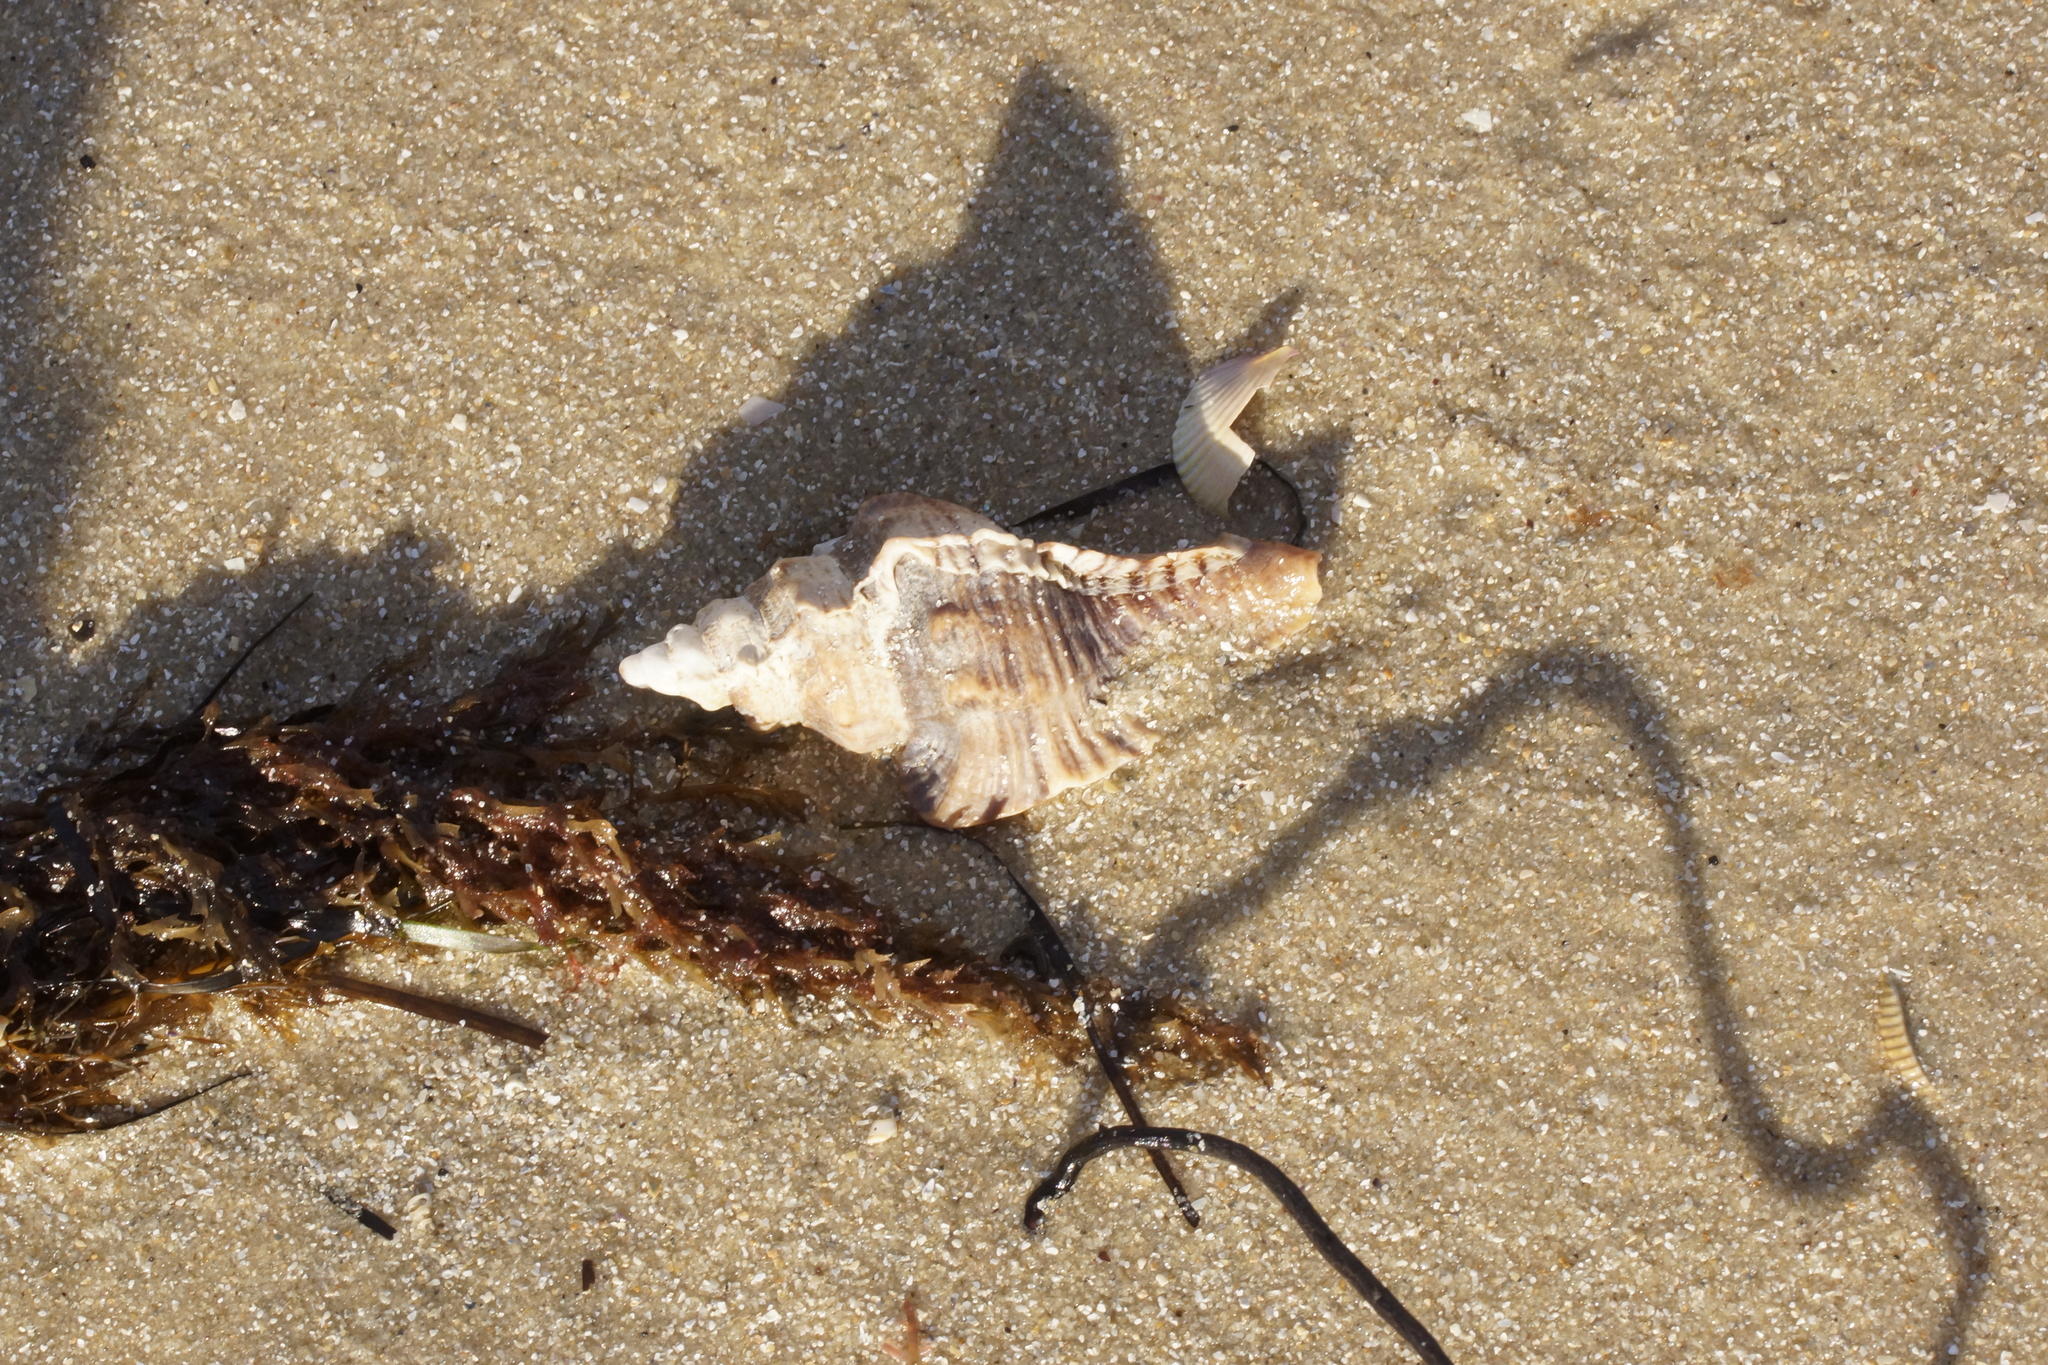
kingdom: Animalia
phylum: Mollusca
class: Gastropoda
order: Neogastropoda
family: Muricidae
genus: Pterochelus
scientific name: Pterochelus triformis
